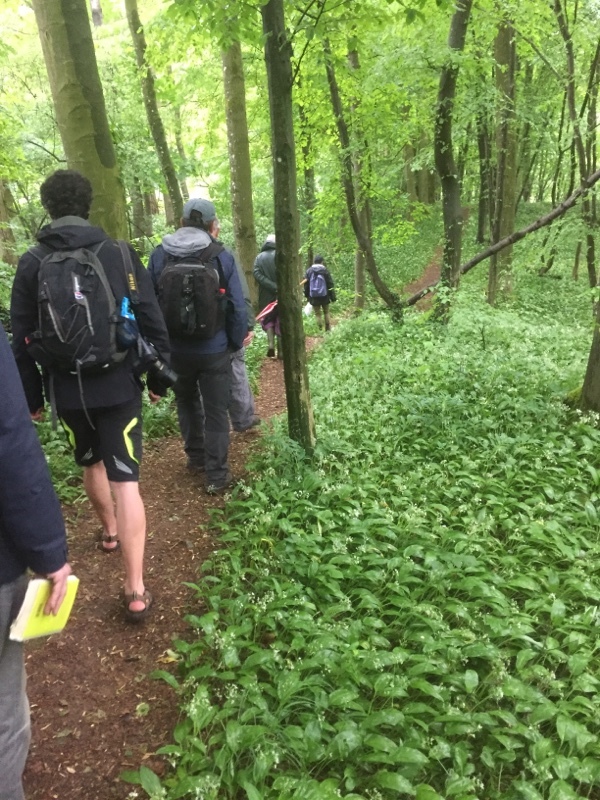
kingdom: Plantae
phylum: Tracheophyta
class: Liliopsida
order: Asparagales
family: Amaryllidaceae
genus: Allium
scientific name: Allium ursinum
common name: Ramsons
